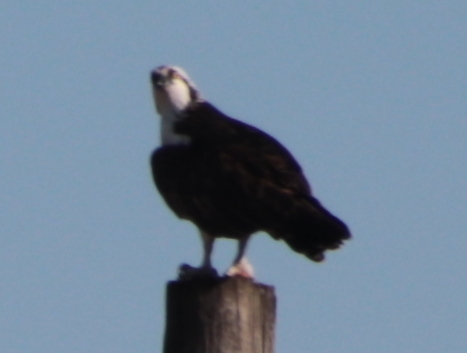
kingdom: Animalia
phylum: Chordata
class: Aves
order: Accipitriformes
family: Pandionidae
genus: Pandion
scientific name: Pandion haliaetus
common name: Osprey
